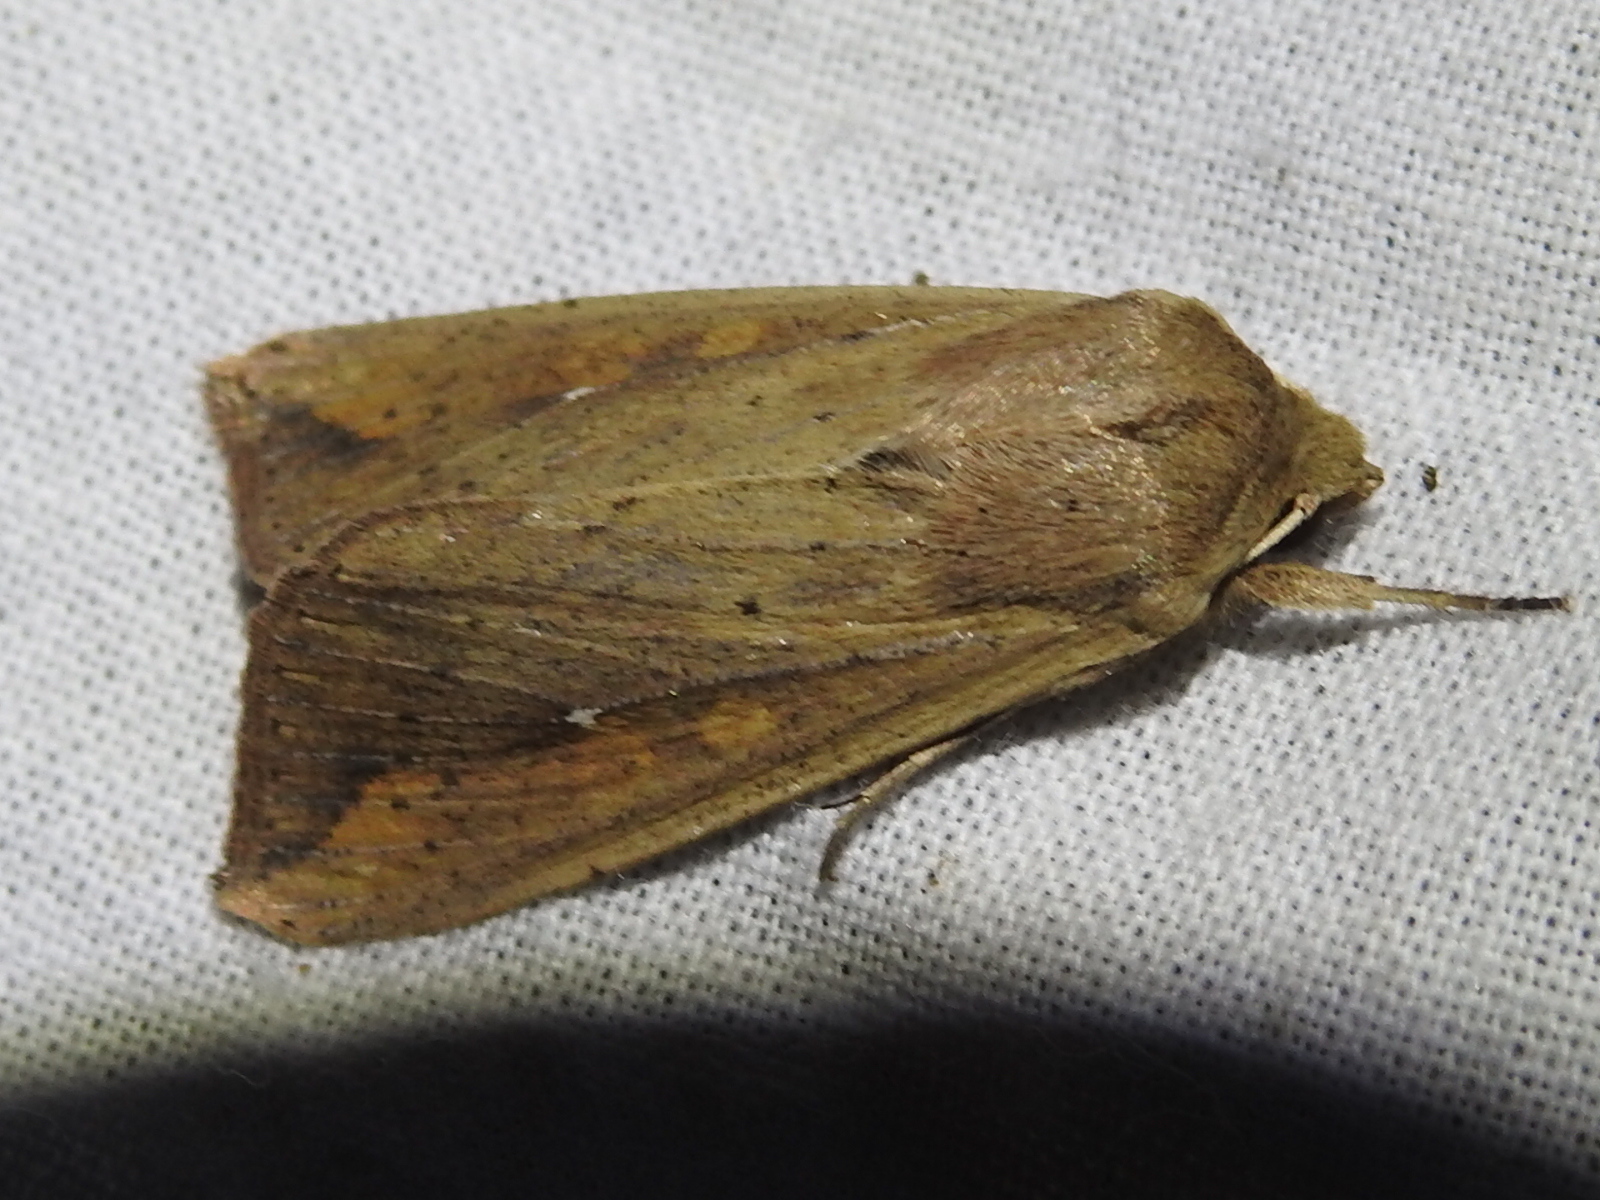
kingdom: Animalia
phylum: Arthropoda
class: Insecta
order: Lepidoptera
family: Noctuidae
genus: Mythimna
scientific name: Mythimna unipuncta
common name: White-speck
